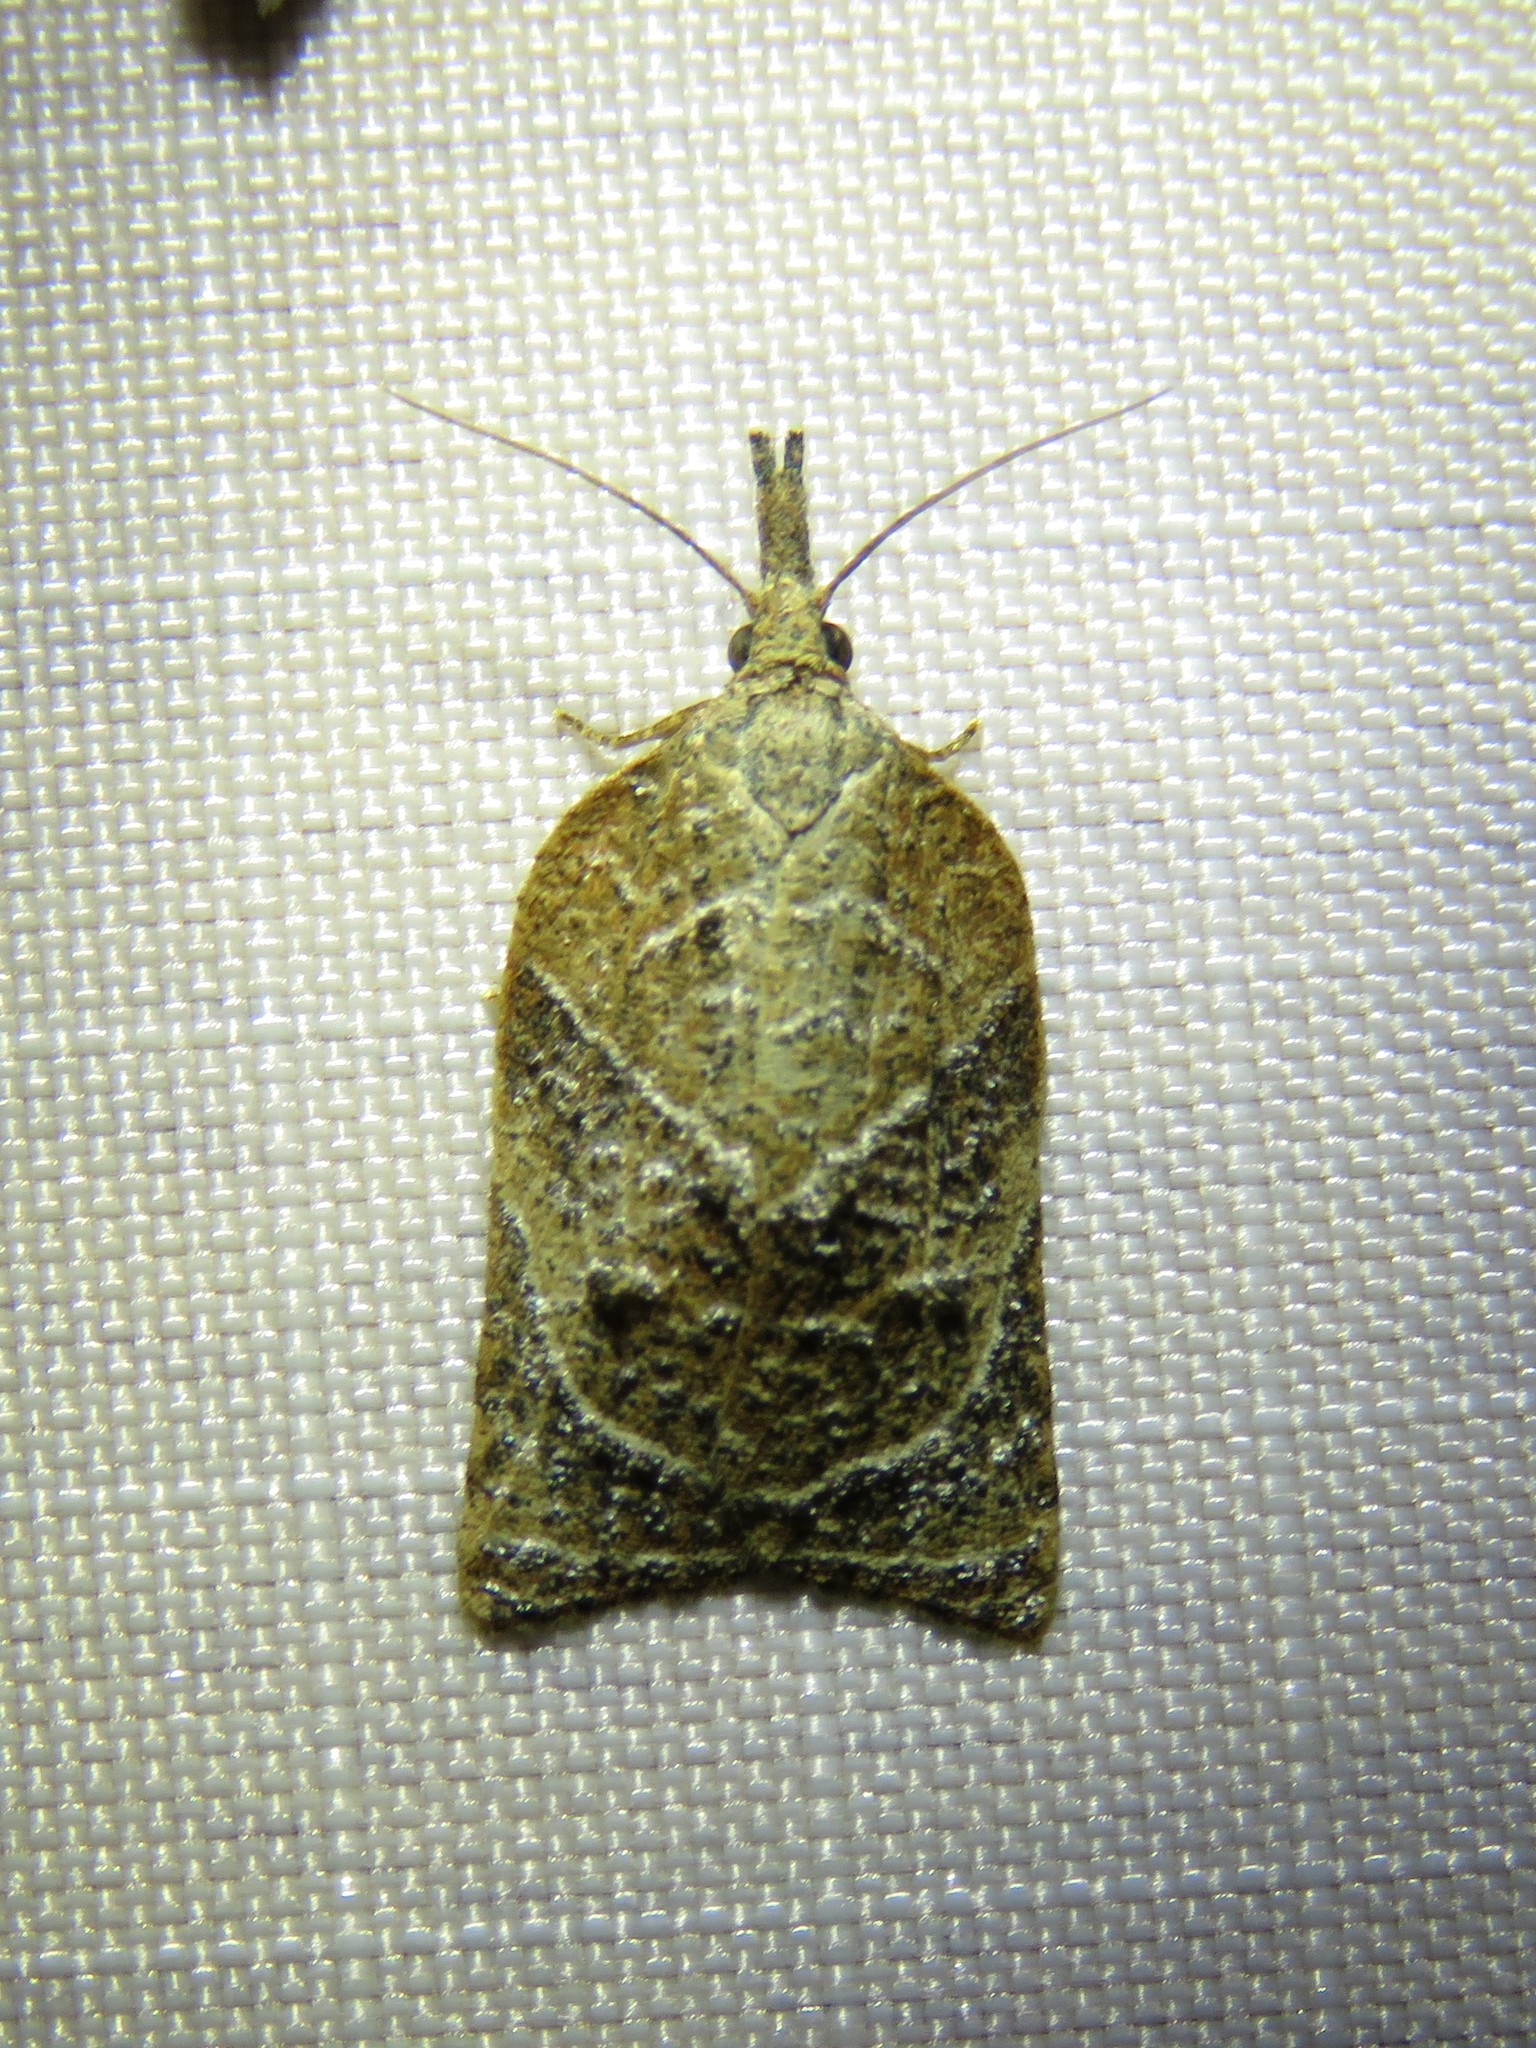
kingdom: Animalia
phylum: Arthropoda
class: Insecta
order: Lepidoptera
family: Tortricidae
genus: Platynota
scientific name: Platynota rostrana
